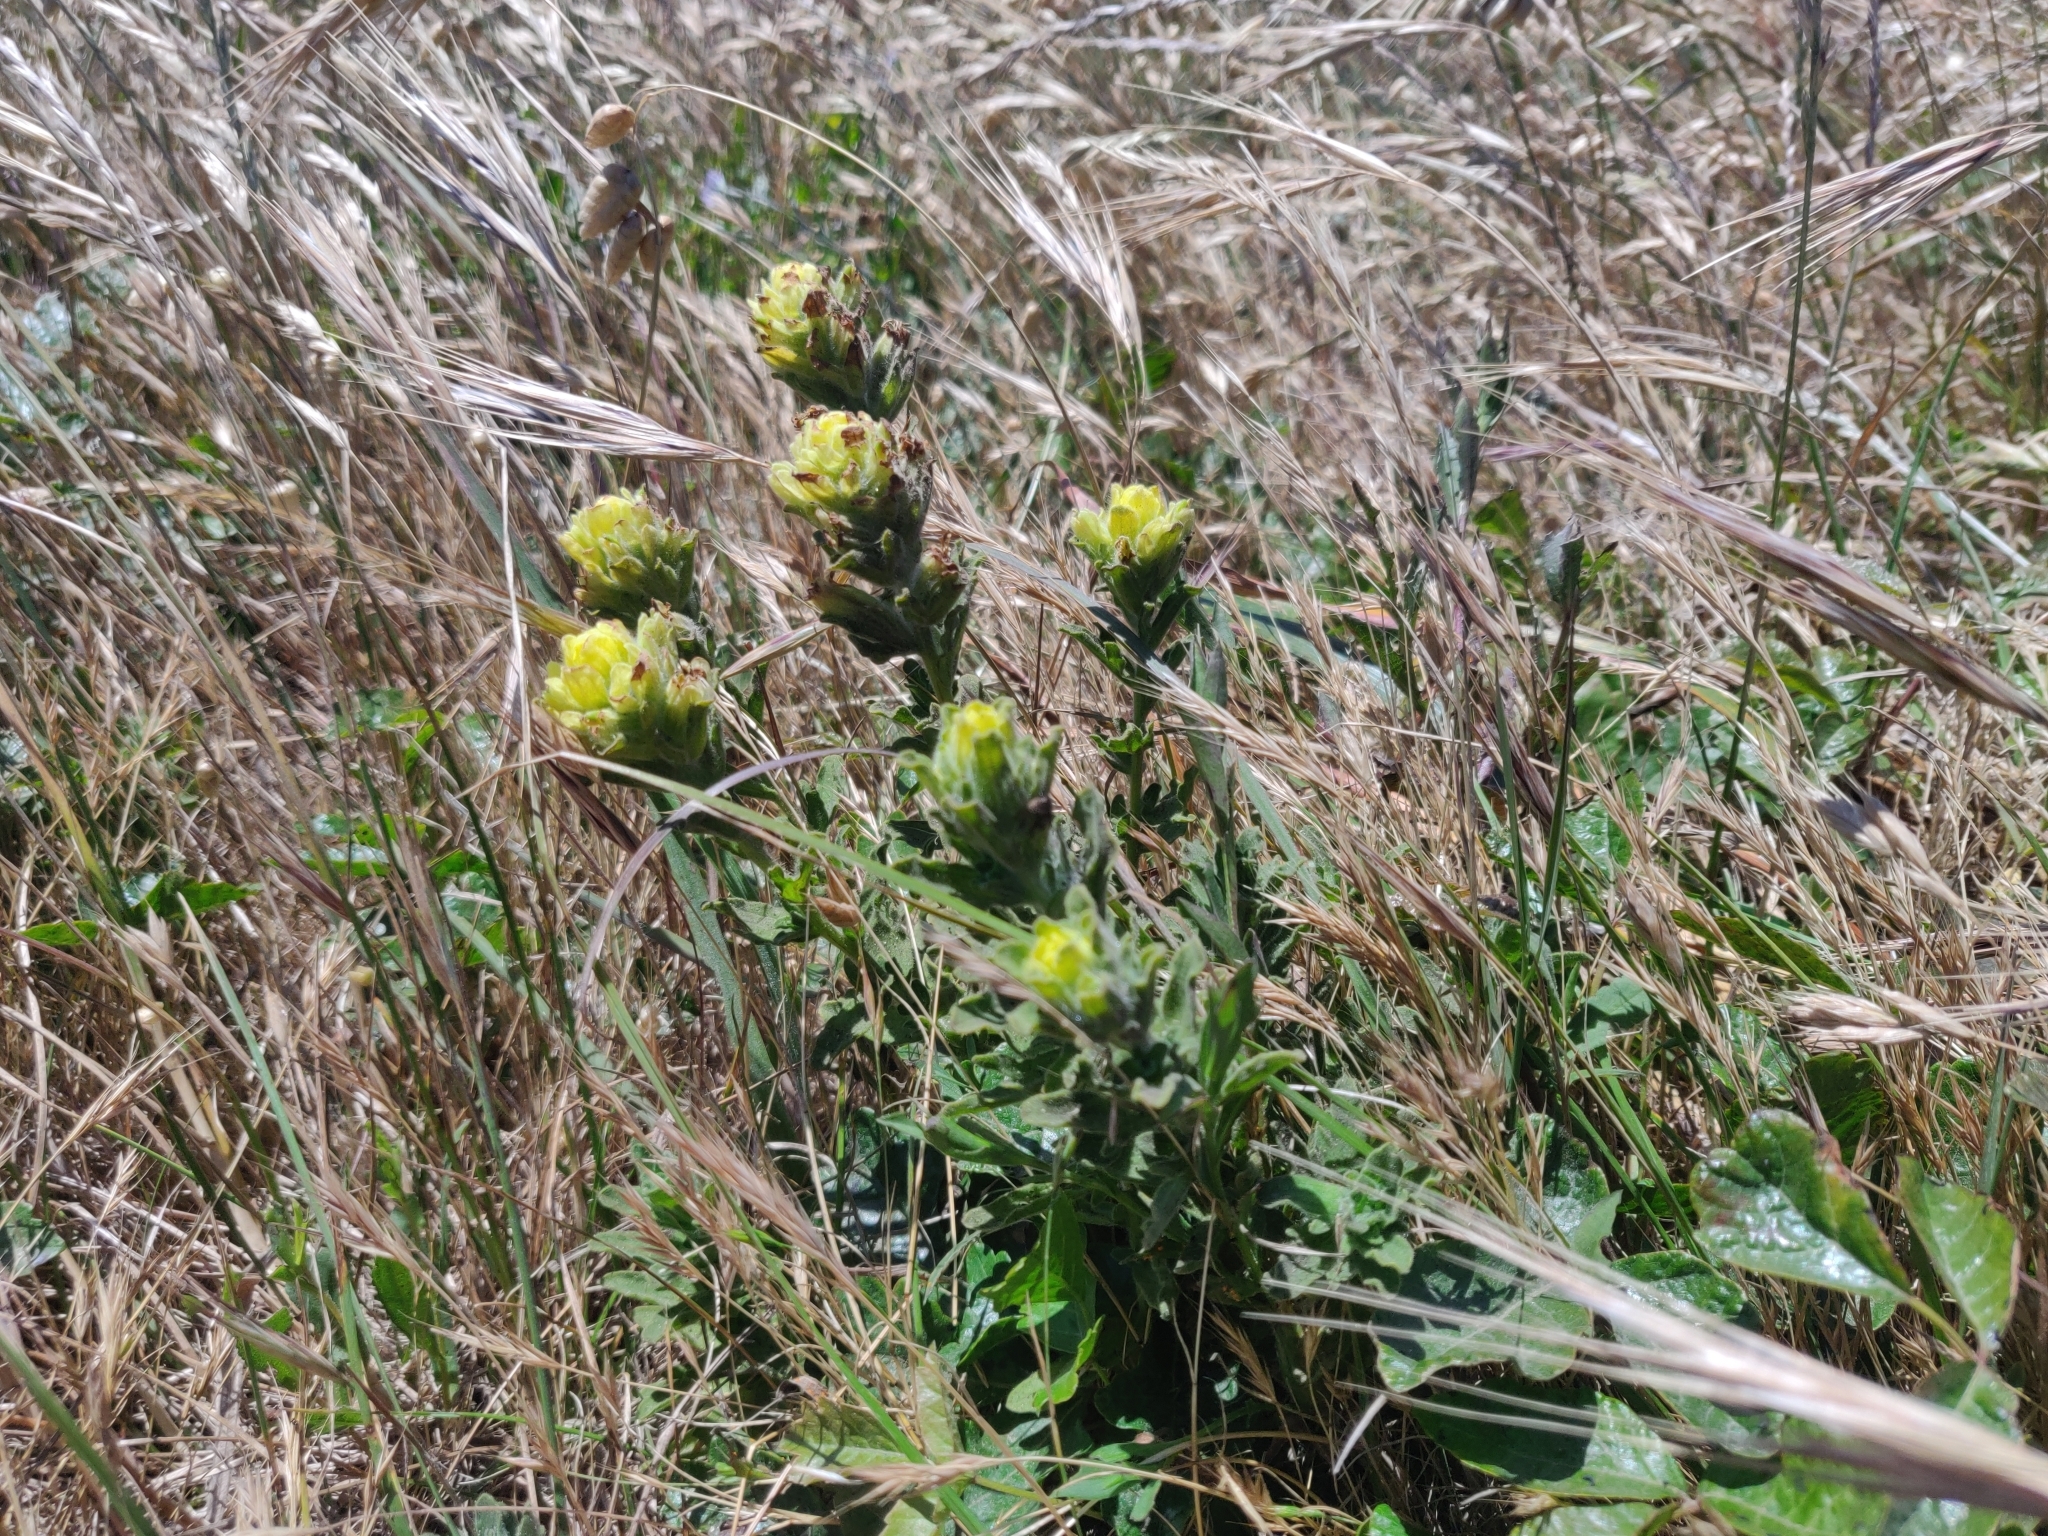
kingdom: Plantae
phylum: Tracheophyta
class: Magnoliopsida
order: Lamiales
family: Orobanchaceae
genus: Castilleja
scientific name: Castilleja wightii
